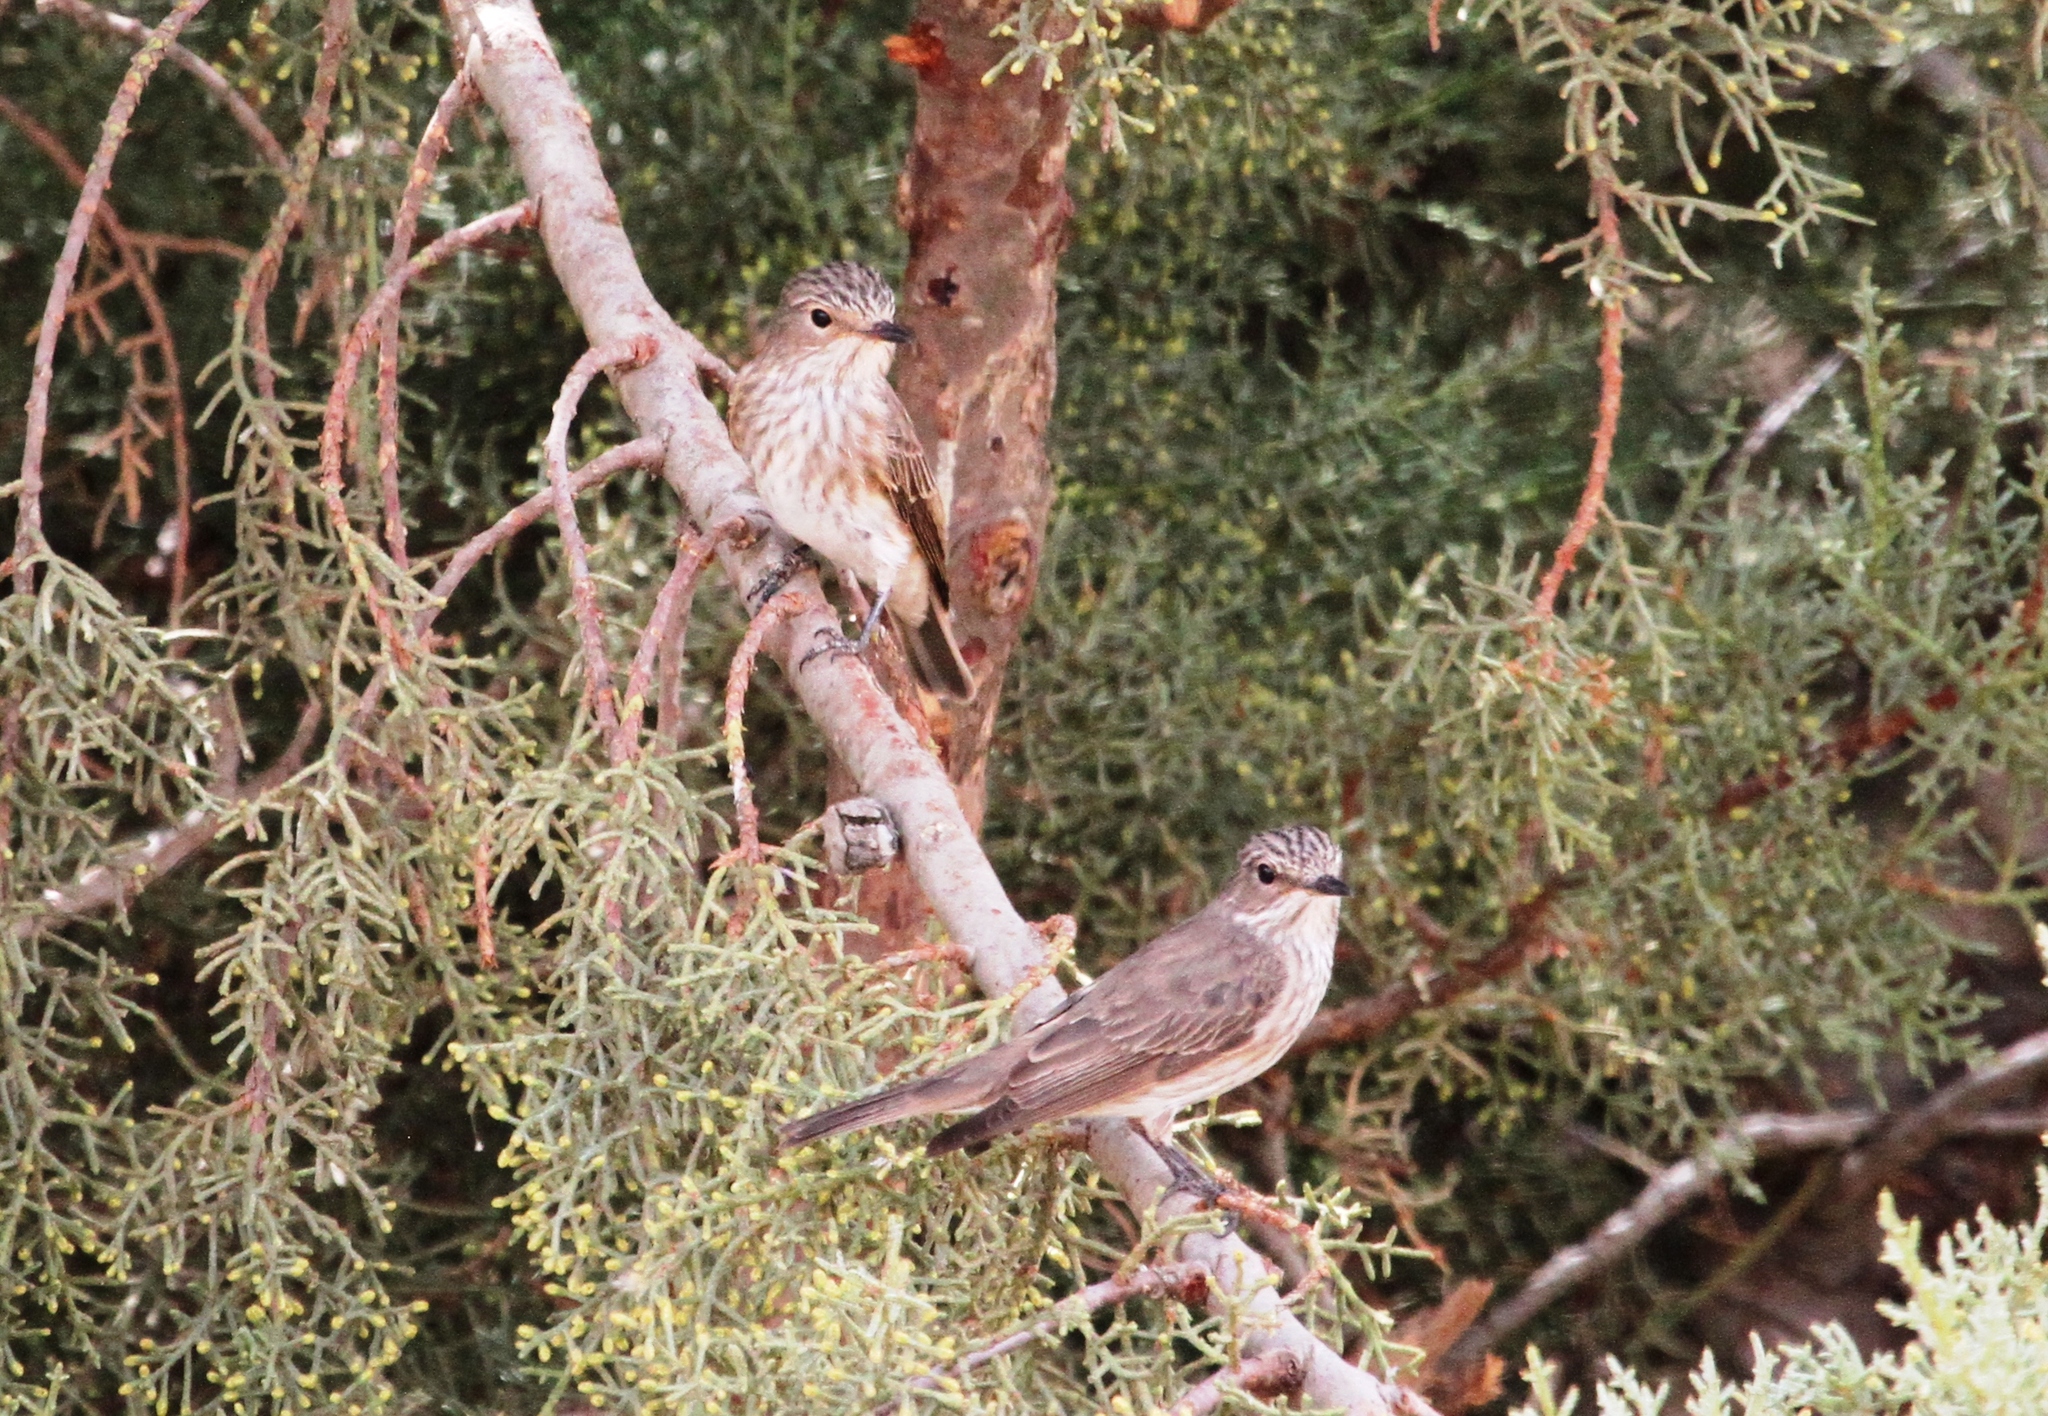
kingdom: Animalia
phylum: Chordata
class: Aves
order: Passeriformes
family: Muscicapidae
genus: Muscicapa
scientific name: Muscicapa striata
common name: Spotted flycatcher
